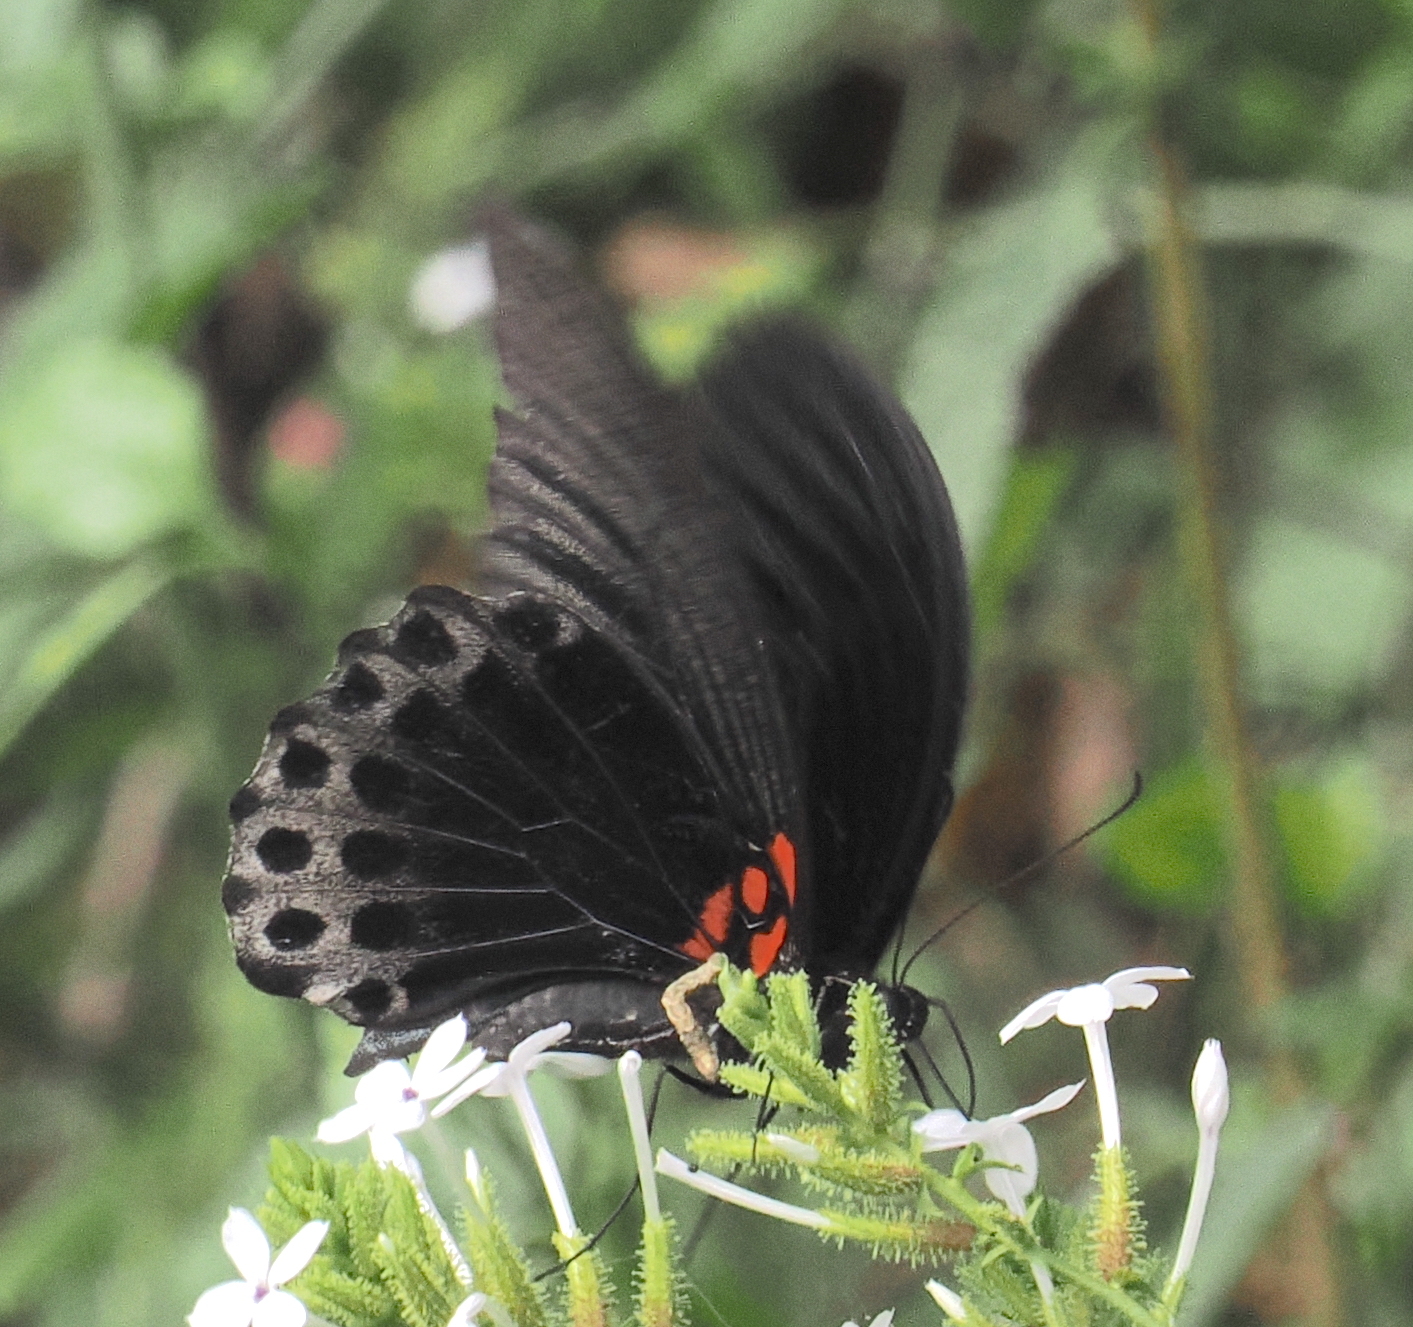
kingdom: Animalia
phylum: Arthropoda
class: Insecta
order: Lepidoptera
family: Papilionidae
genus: Papilio
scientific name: Papilio memnon
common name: Great mormon
